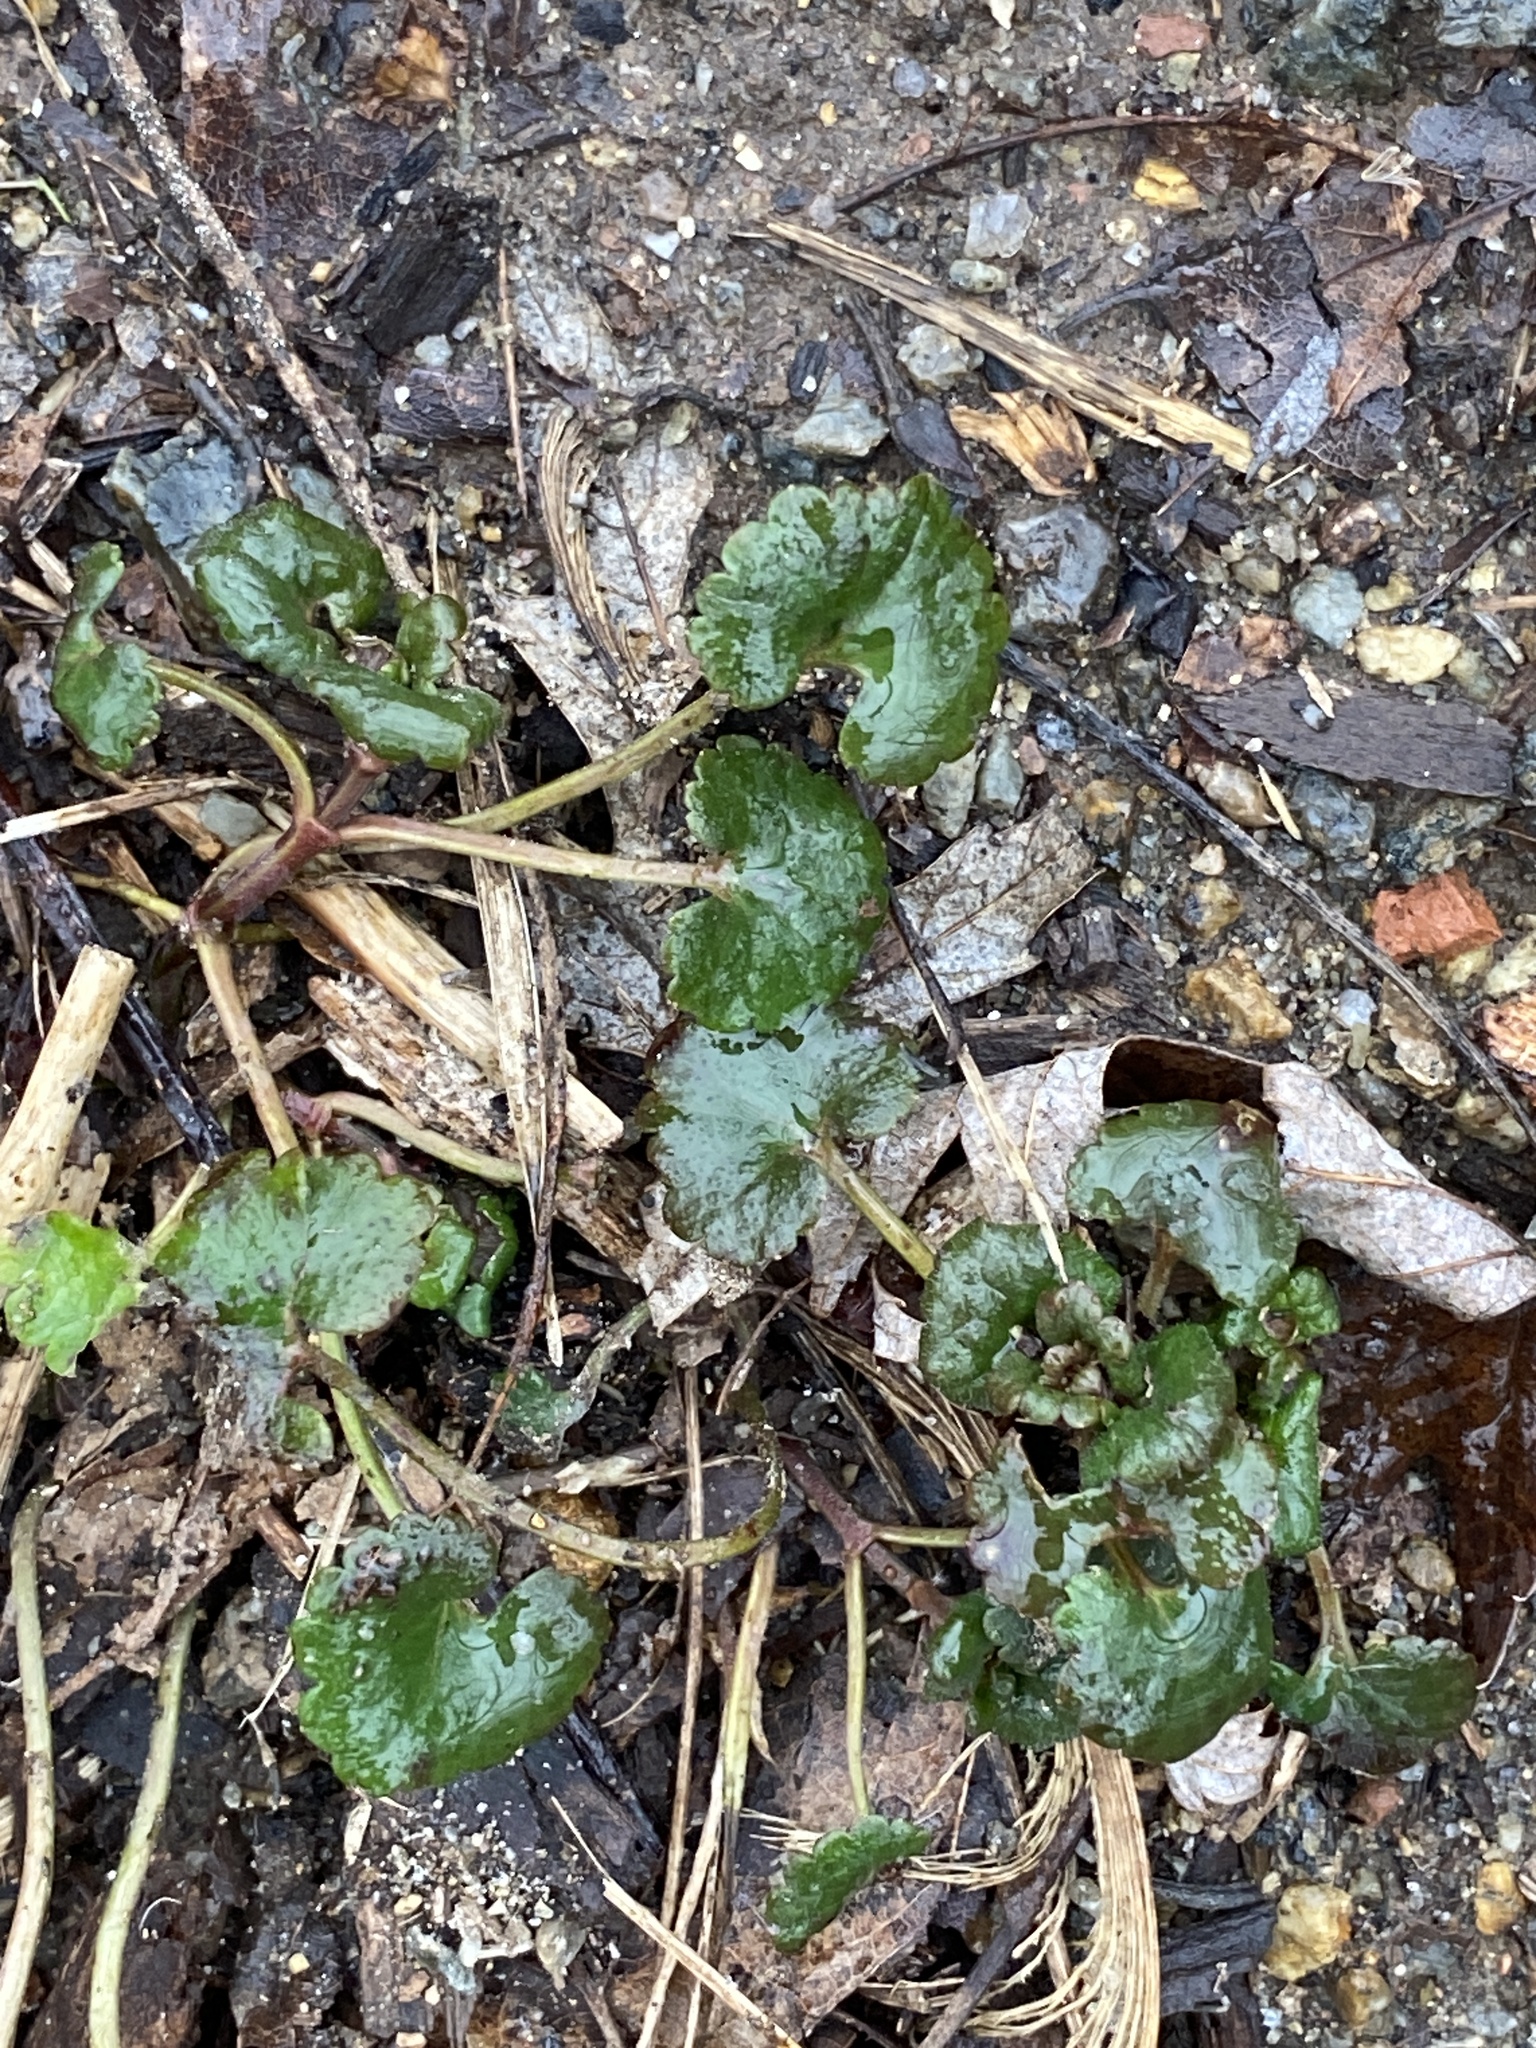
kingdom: Plantae
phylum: Tracheophyta
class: Magnoliopsida
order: Lamiales
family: Lamiaceae
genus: Glechoma
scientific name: Glechoma hederacea
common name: Ground ivy
